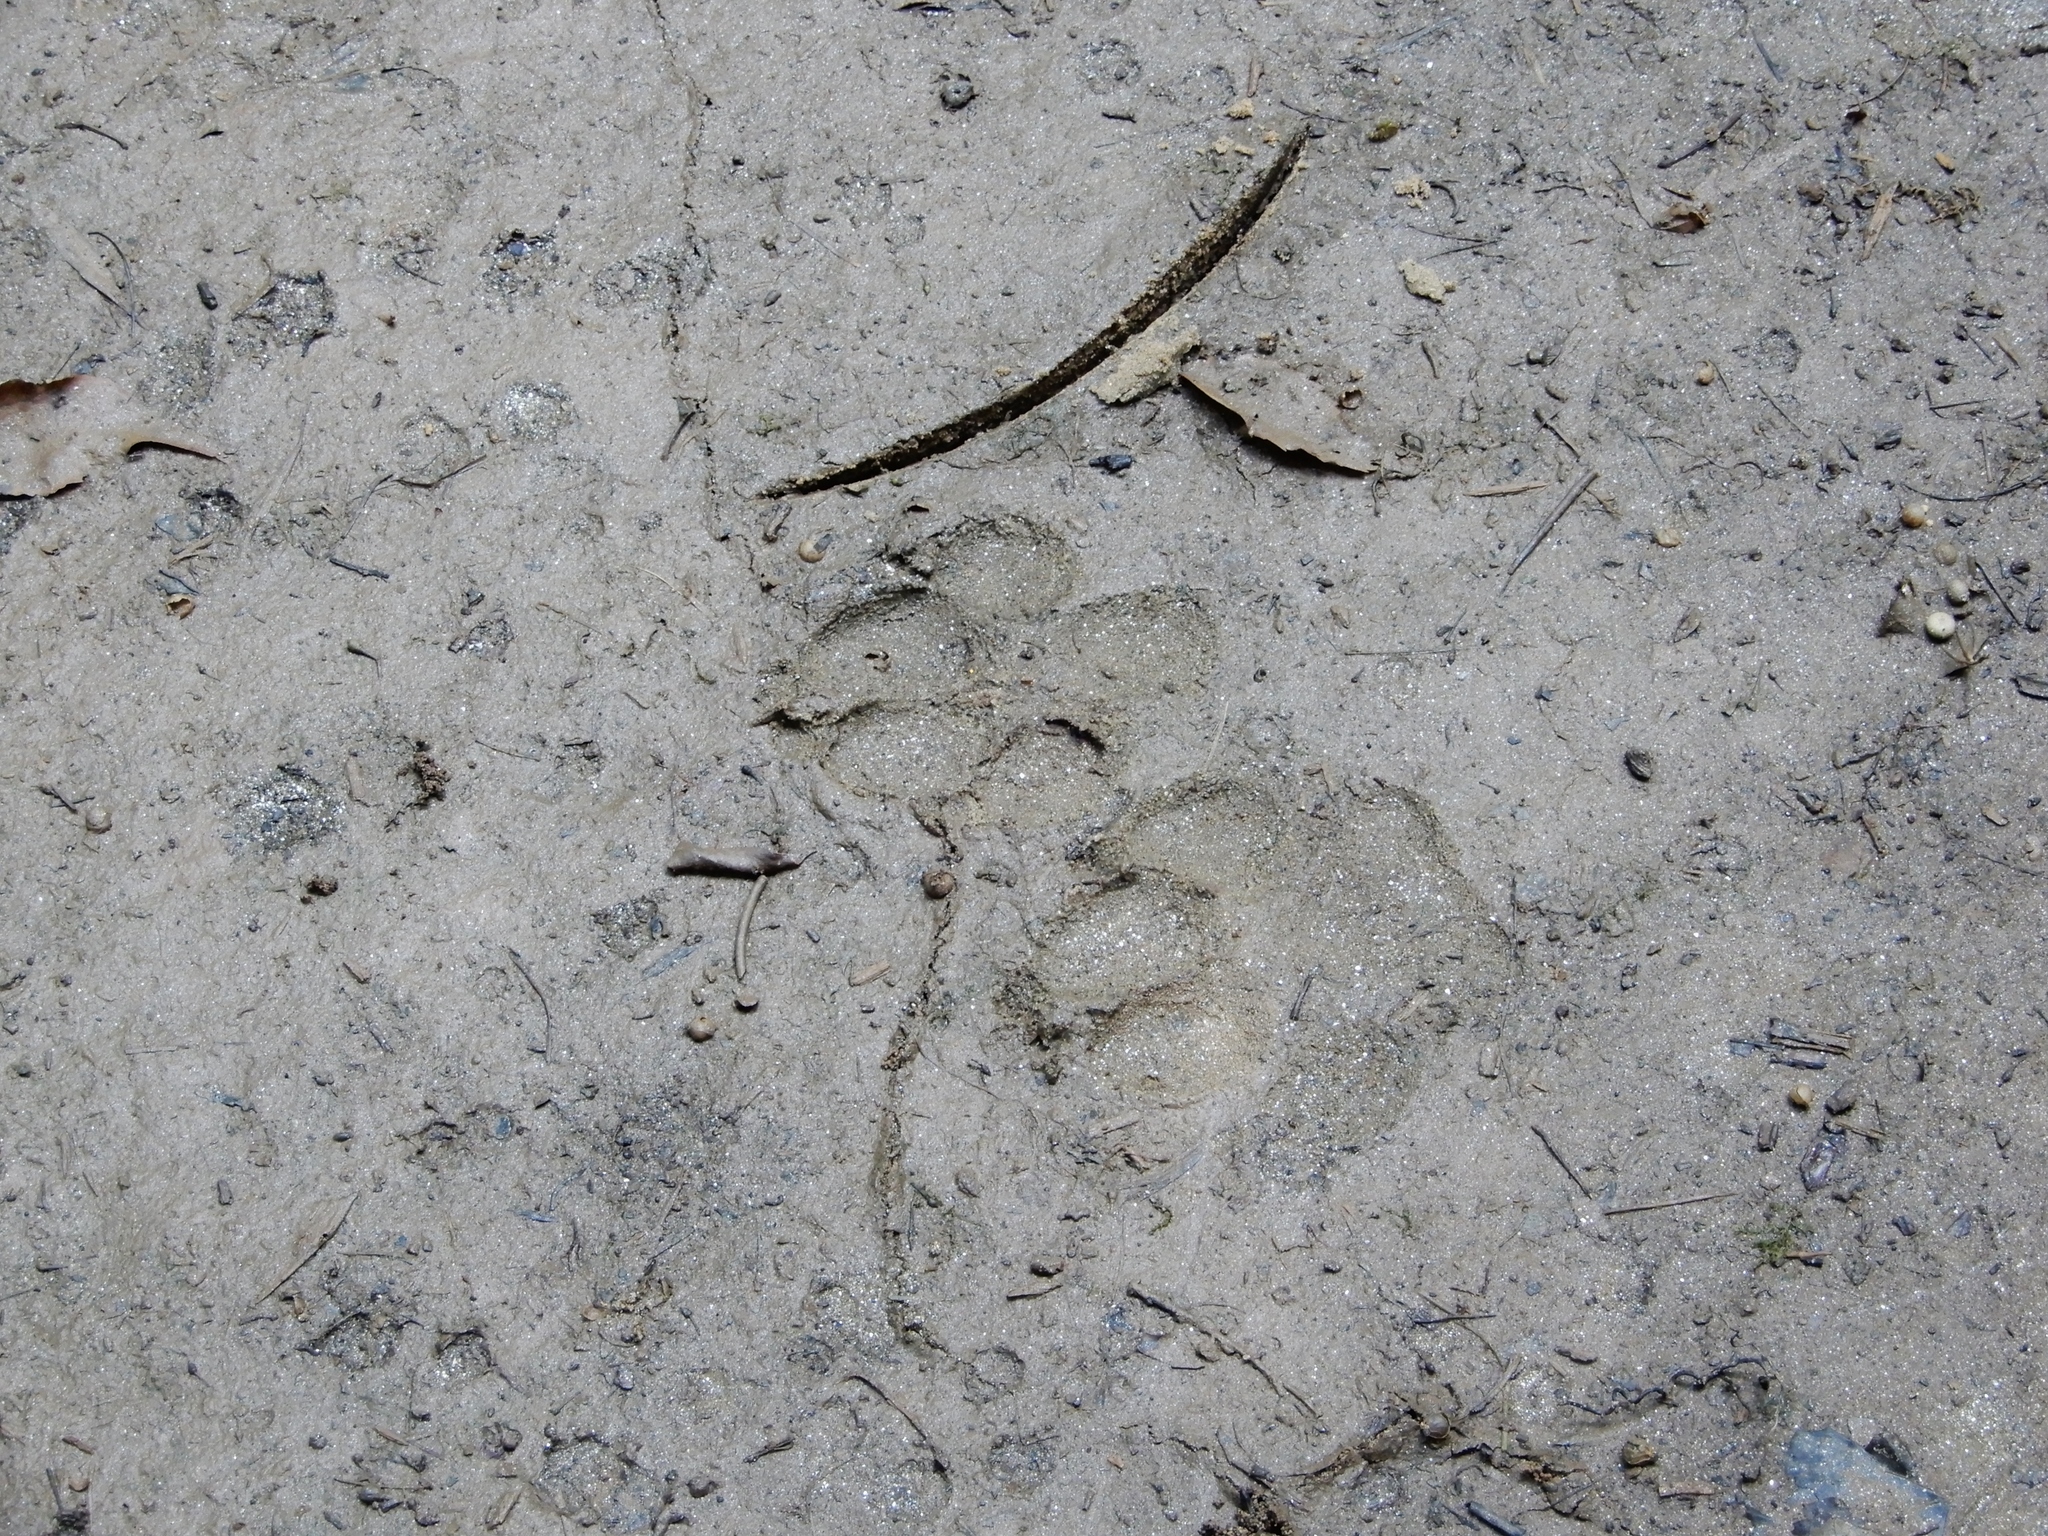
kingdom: Animalia
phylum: Chordata
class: Mammalia
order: Carnivora
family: Canidae
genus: Canis
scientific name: Canis latrans
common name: Coyote
